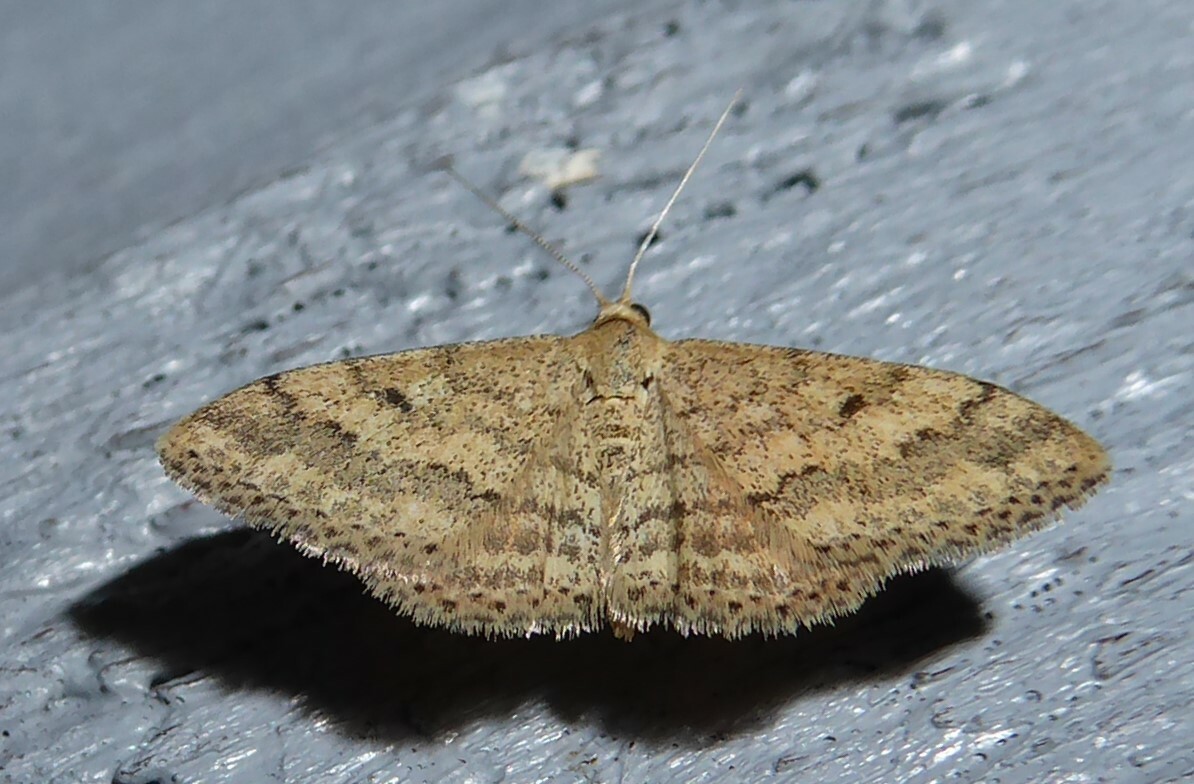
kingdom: Animalia
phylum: Arthropoda
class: Insecta
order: Lepidoptera
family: Geometridae
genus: Scopula
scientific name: Scopula rubraria
